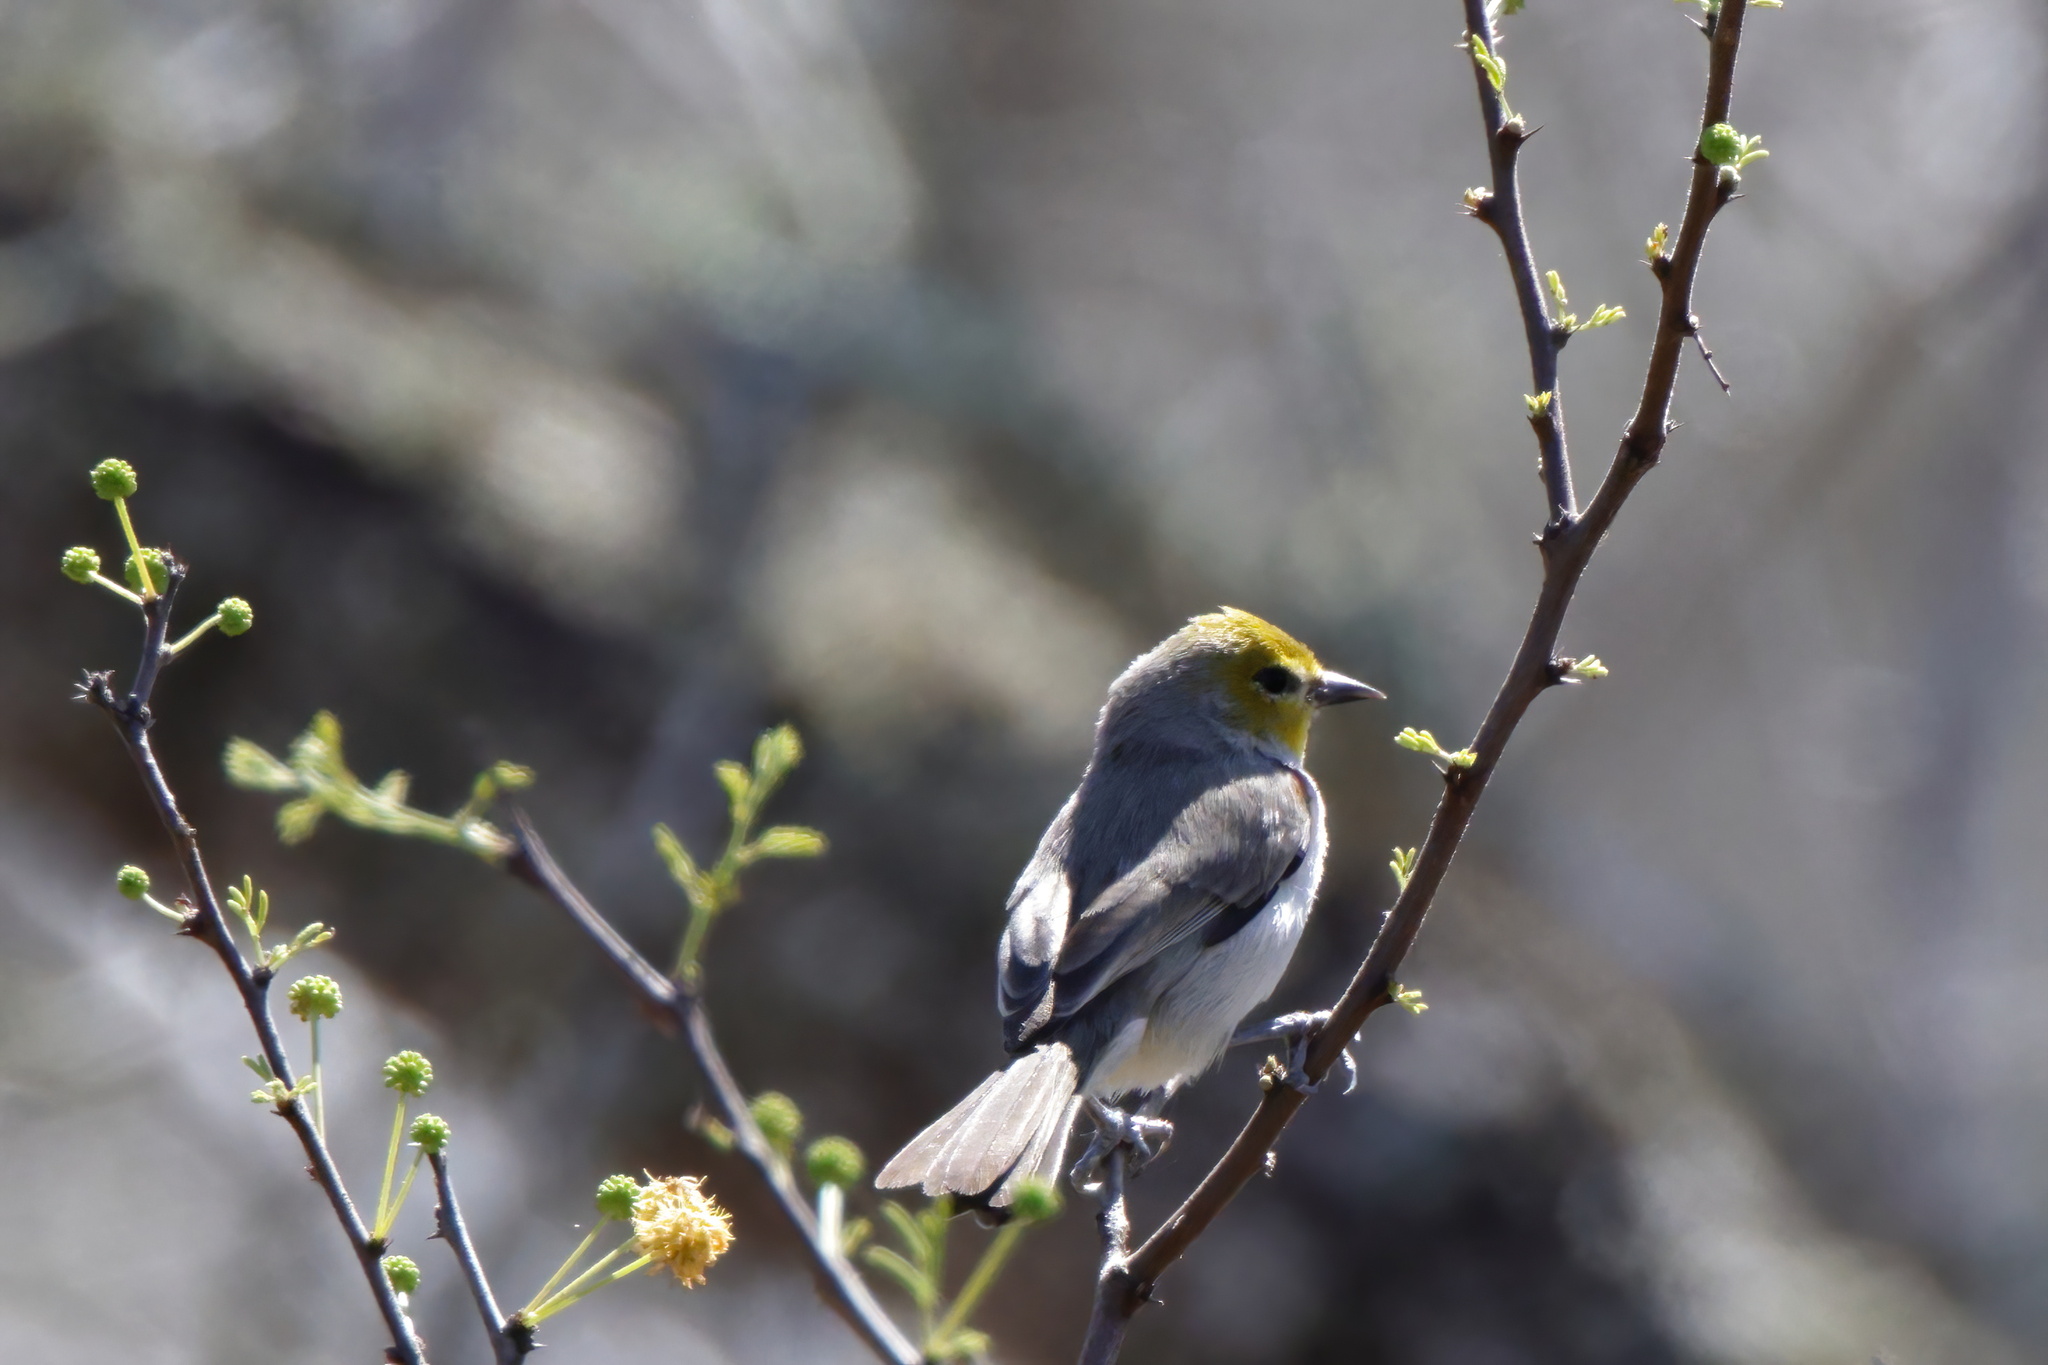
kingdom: Animalia
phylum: Chordata
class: Aves
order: Passeriformes
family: Remizidae
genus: Auriparus
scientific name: Auriparus flaviceps
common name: Verdin
